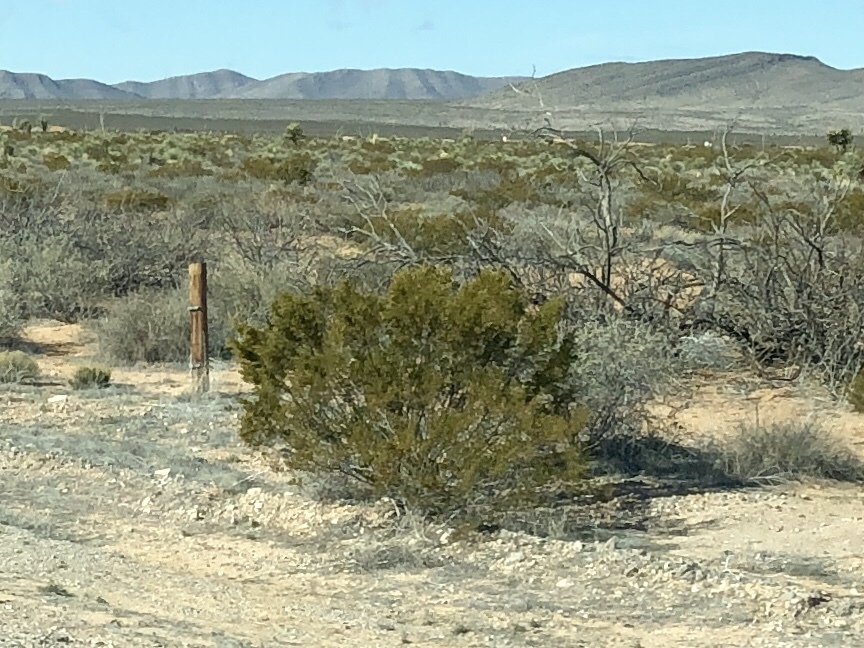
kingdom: Plantae
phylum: Tracheophyta
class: Magnoliopsida
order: Zygophyllales
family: Zygophyllaceae
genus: Larrea
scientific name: Larrea tridentata
